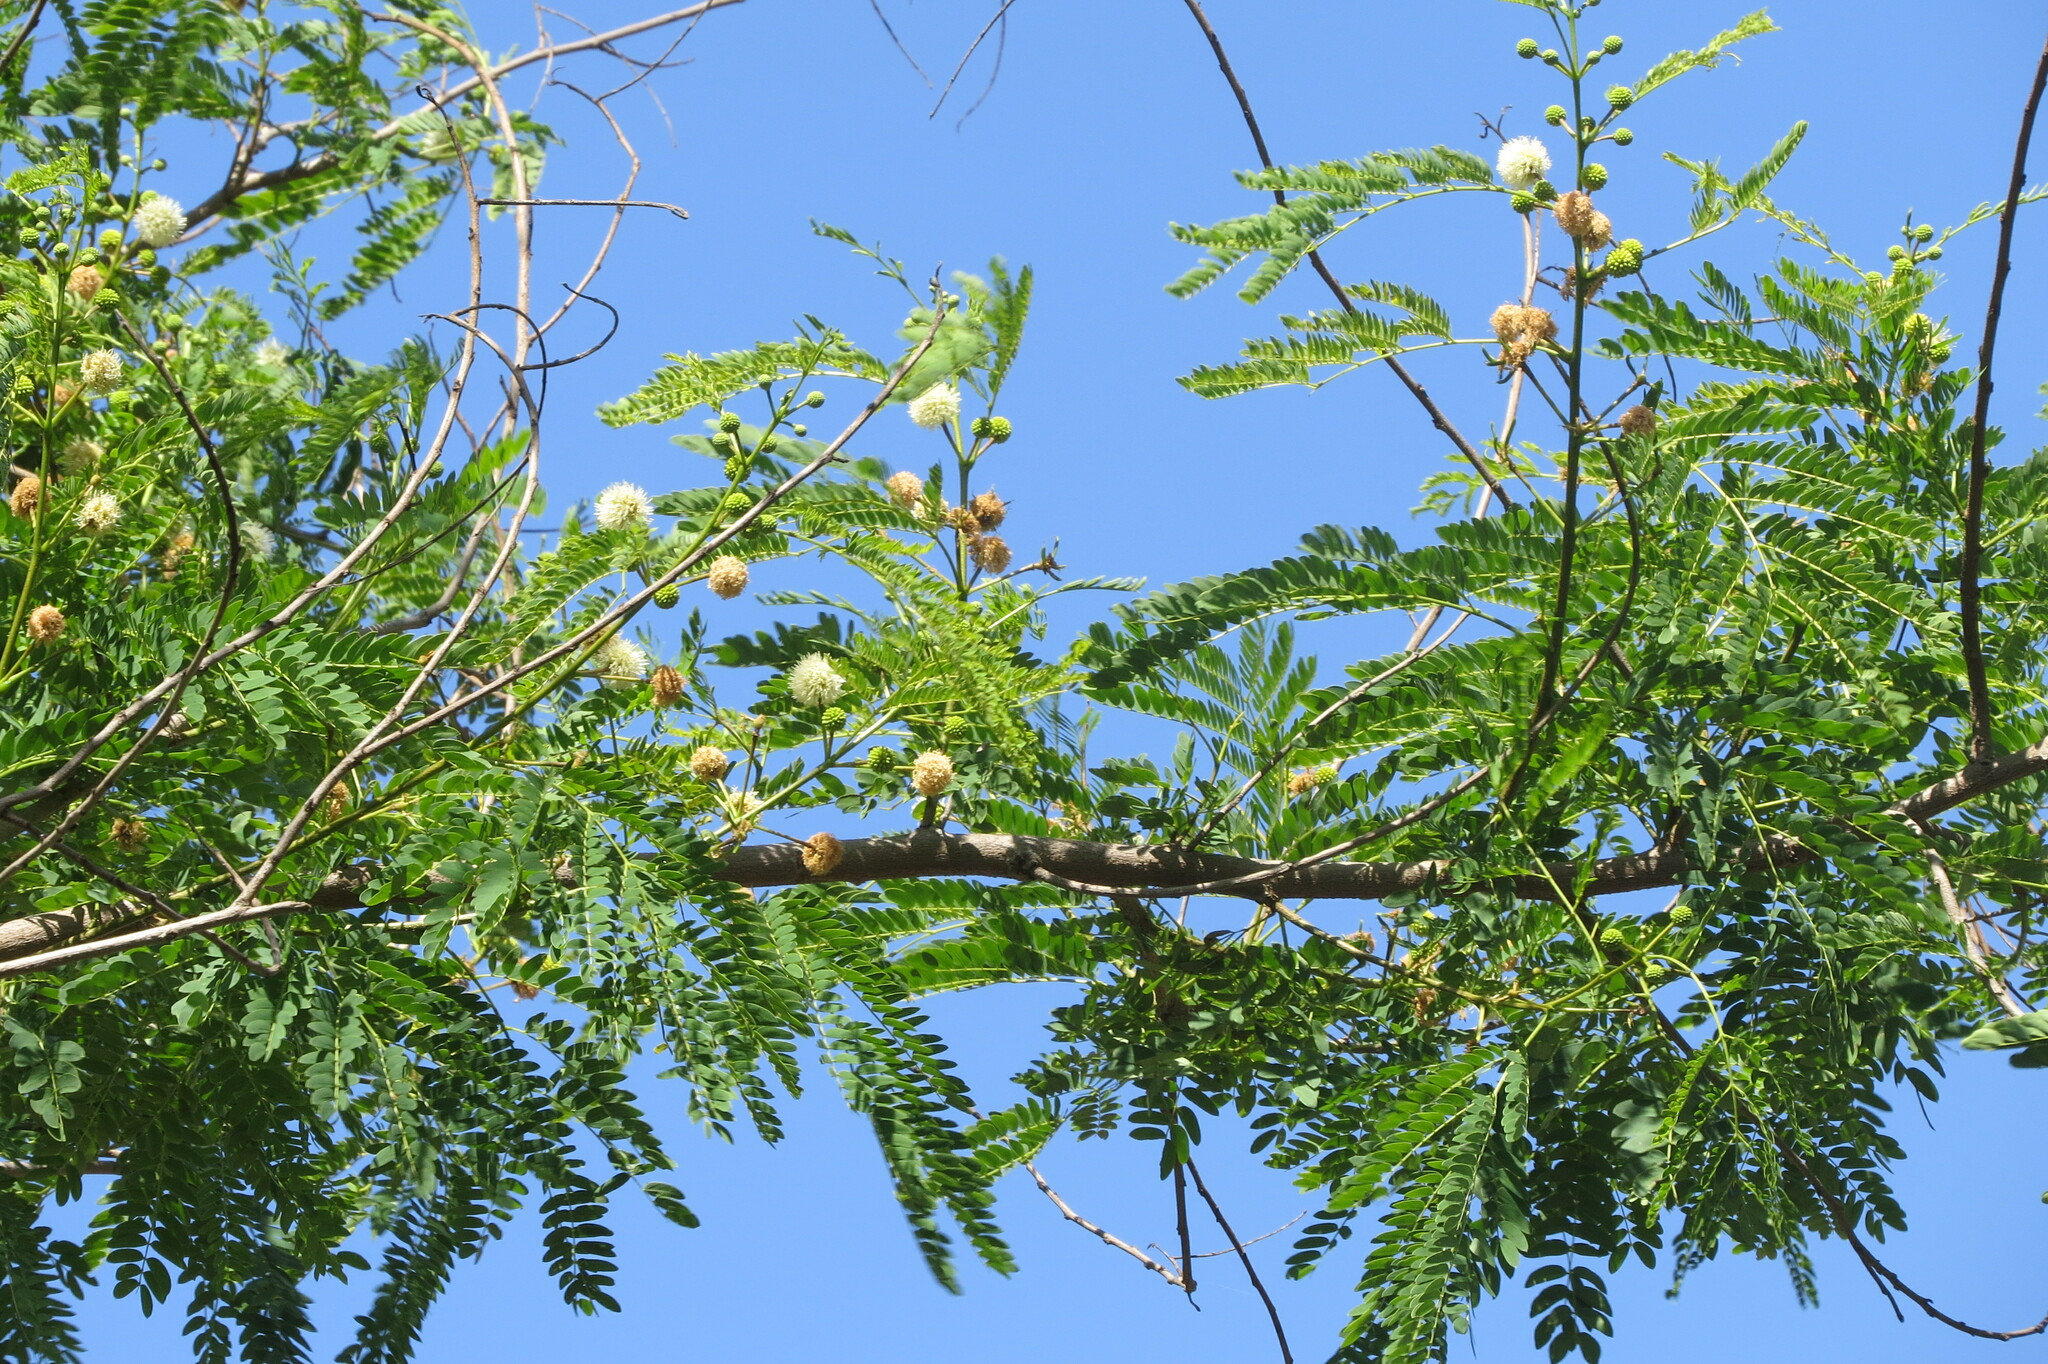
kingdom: Plantae
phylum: Tracheophyta
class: Magnoliopsida
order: Fabales
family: Fabaceae
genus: Leucaena
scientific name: Leucaena leucocephala
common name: White leadtree
